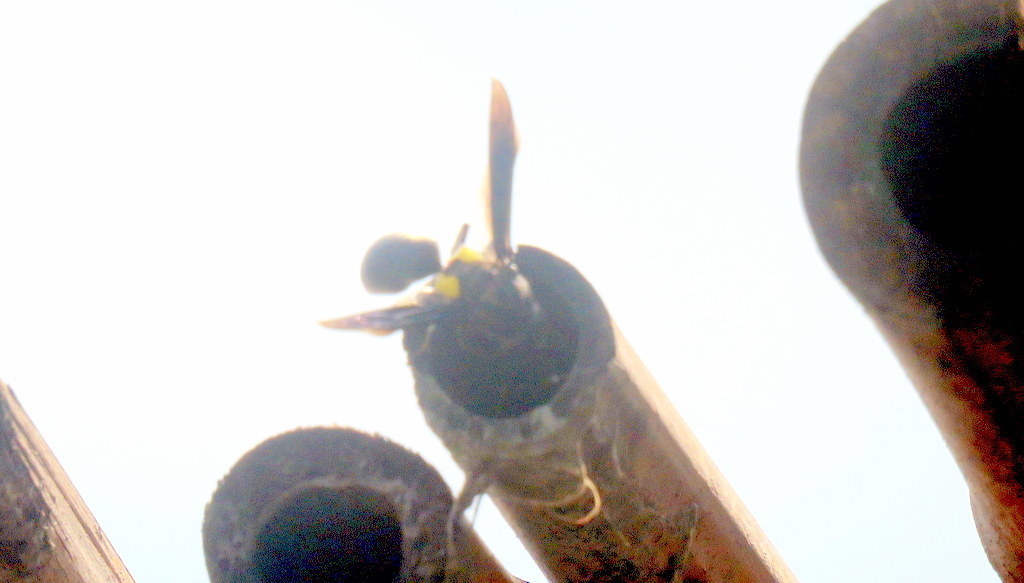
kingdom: Animalia
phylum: Arthropoda
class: Insecta
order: Hymenoptera
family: Eumenidae
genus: Monobia
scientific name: Monobia angulosa
